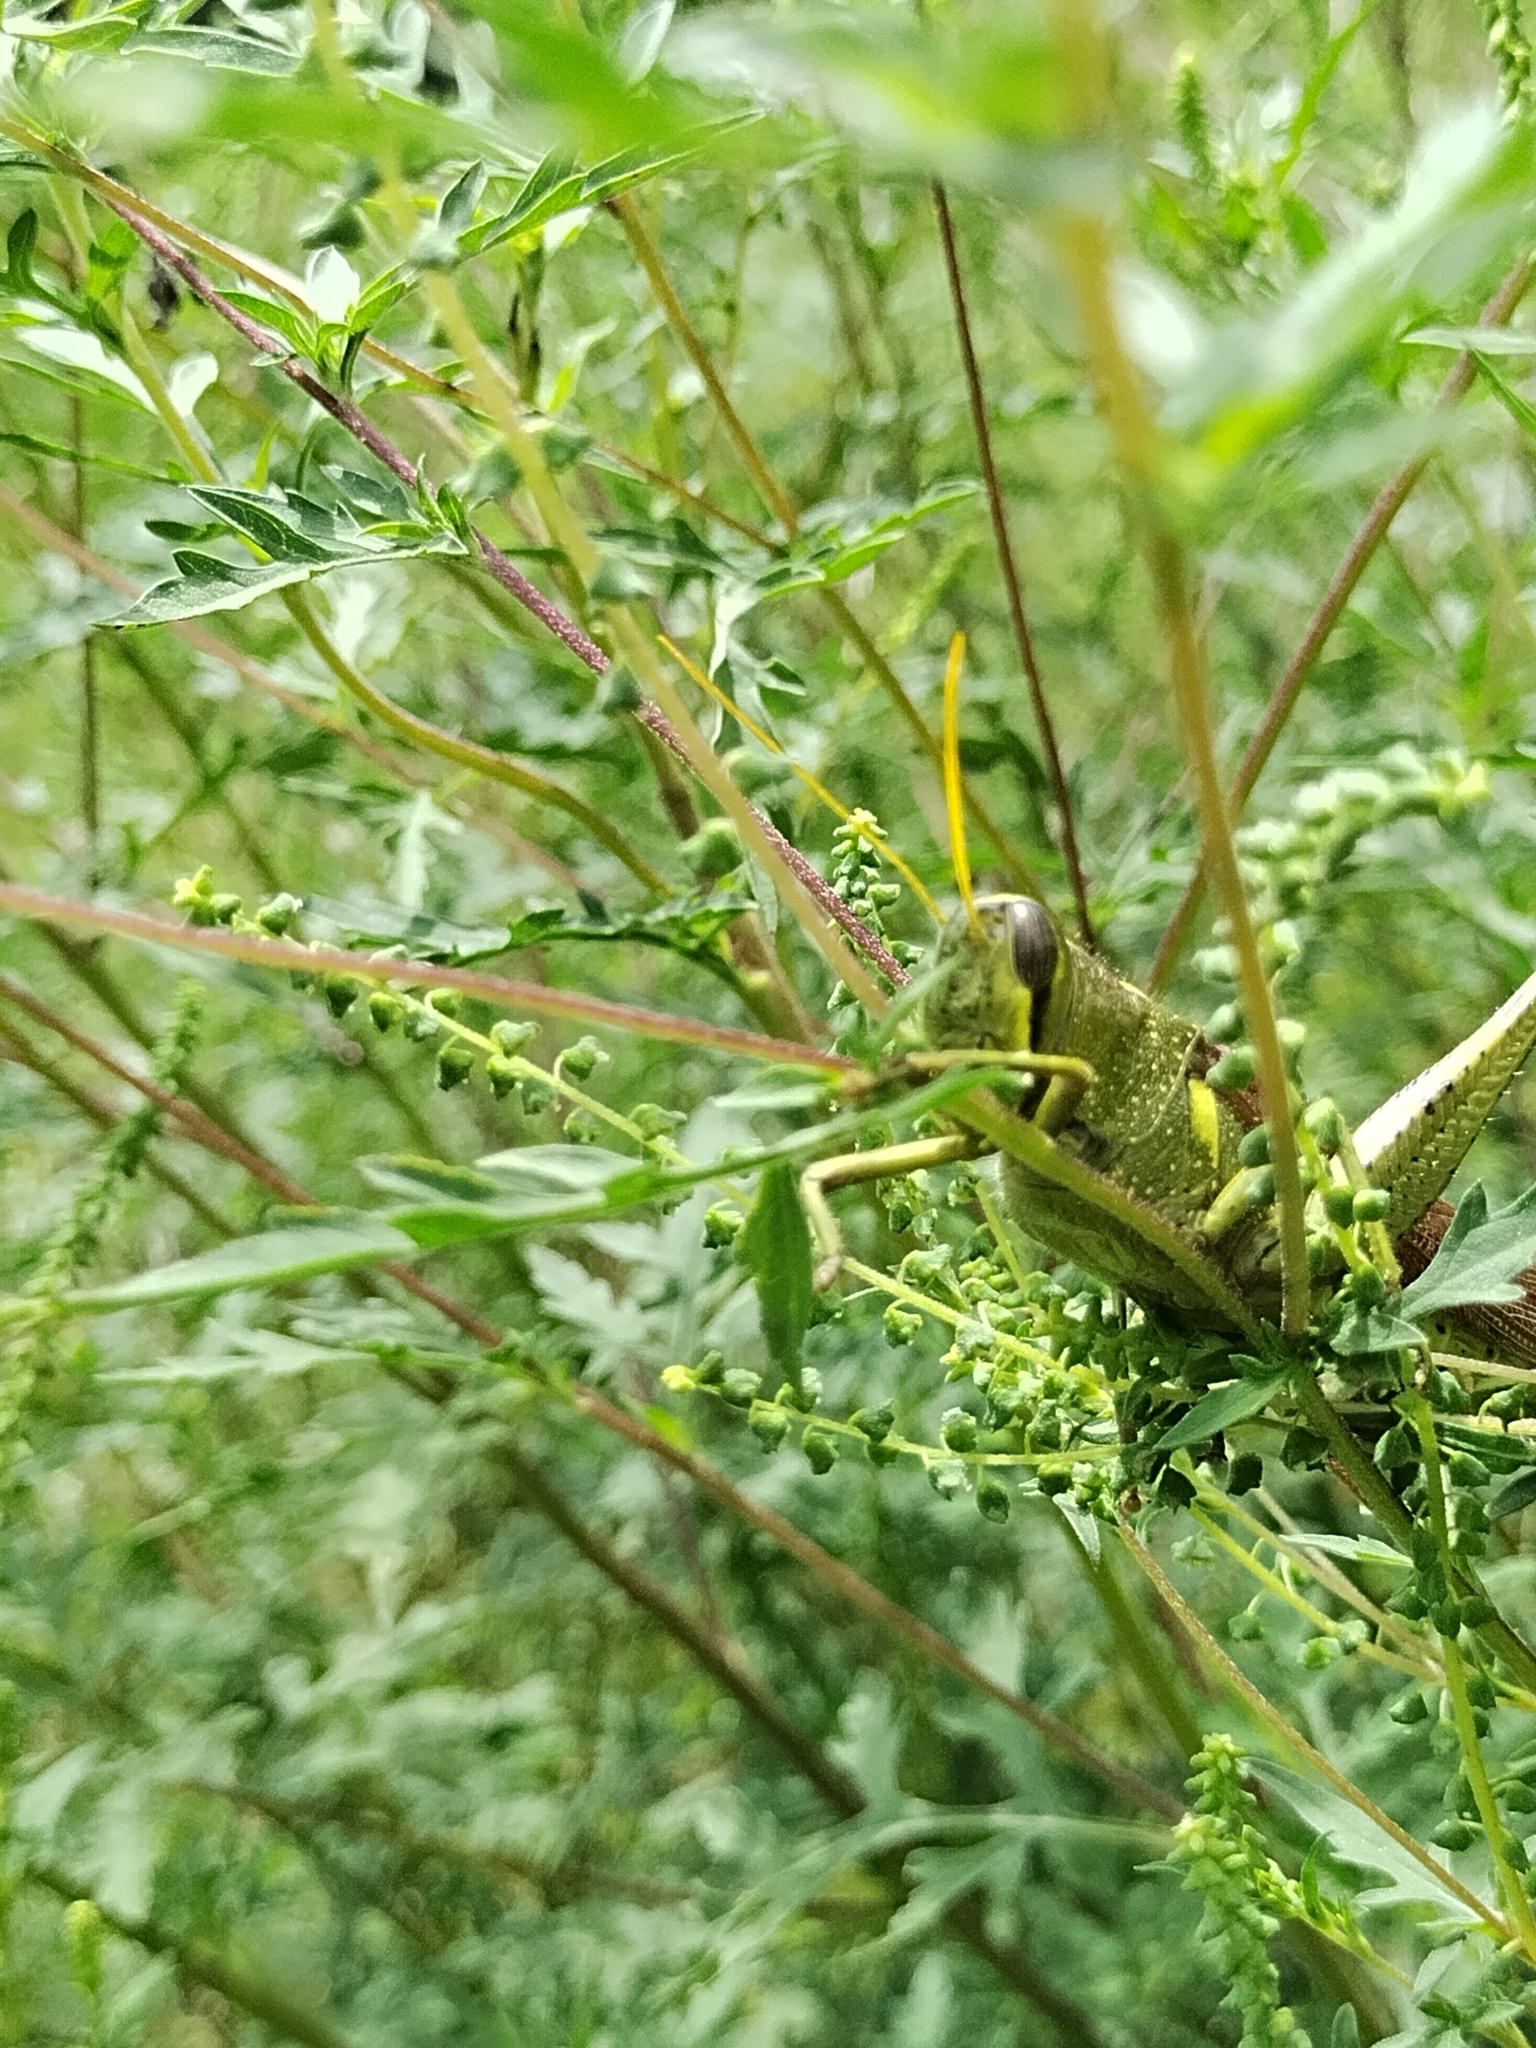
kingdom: Animalia
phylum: Arthropoda
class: Insecta
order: Orthoptera
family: Acrididae
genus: Schistocerca
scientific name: Schistocerca obscura
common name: Obscure bird grasshopper
